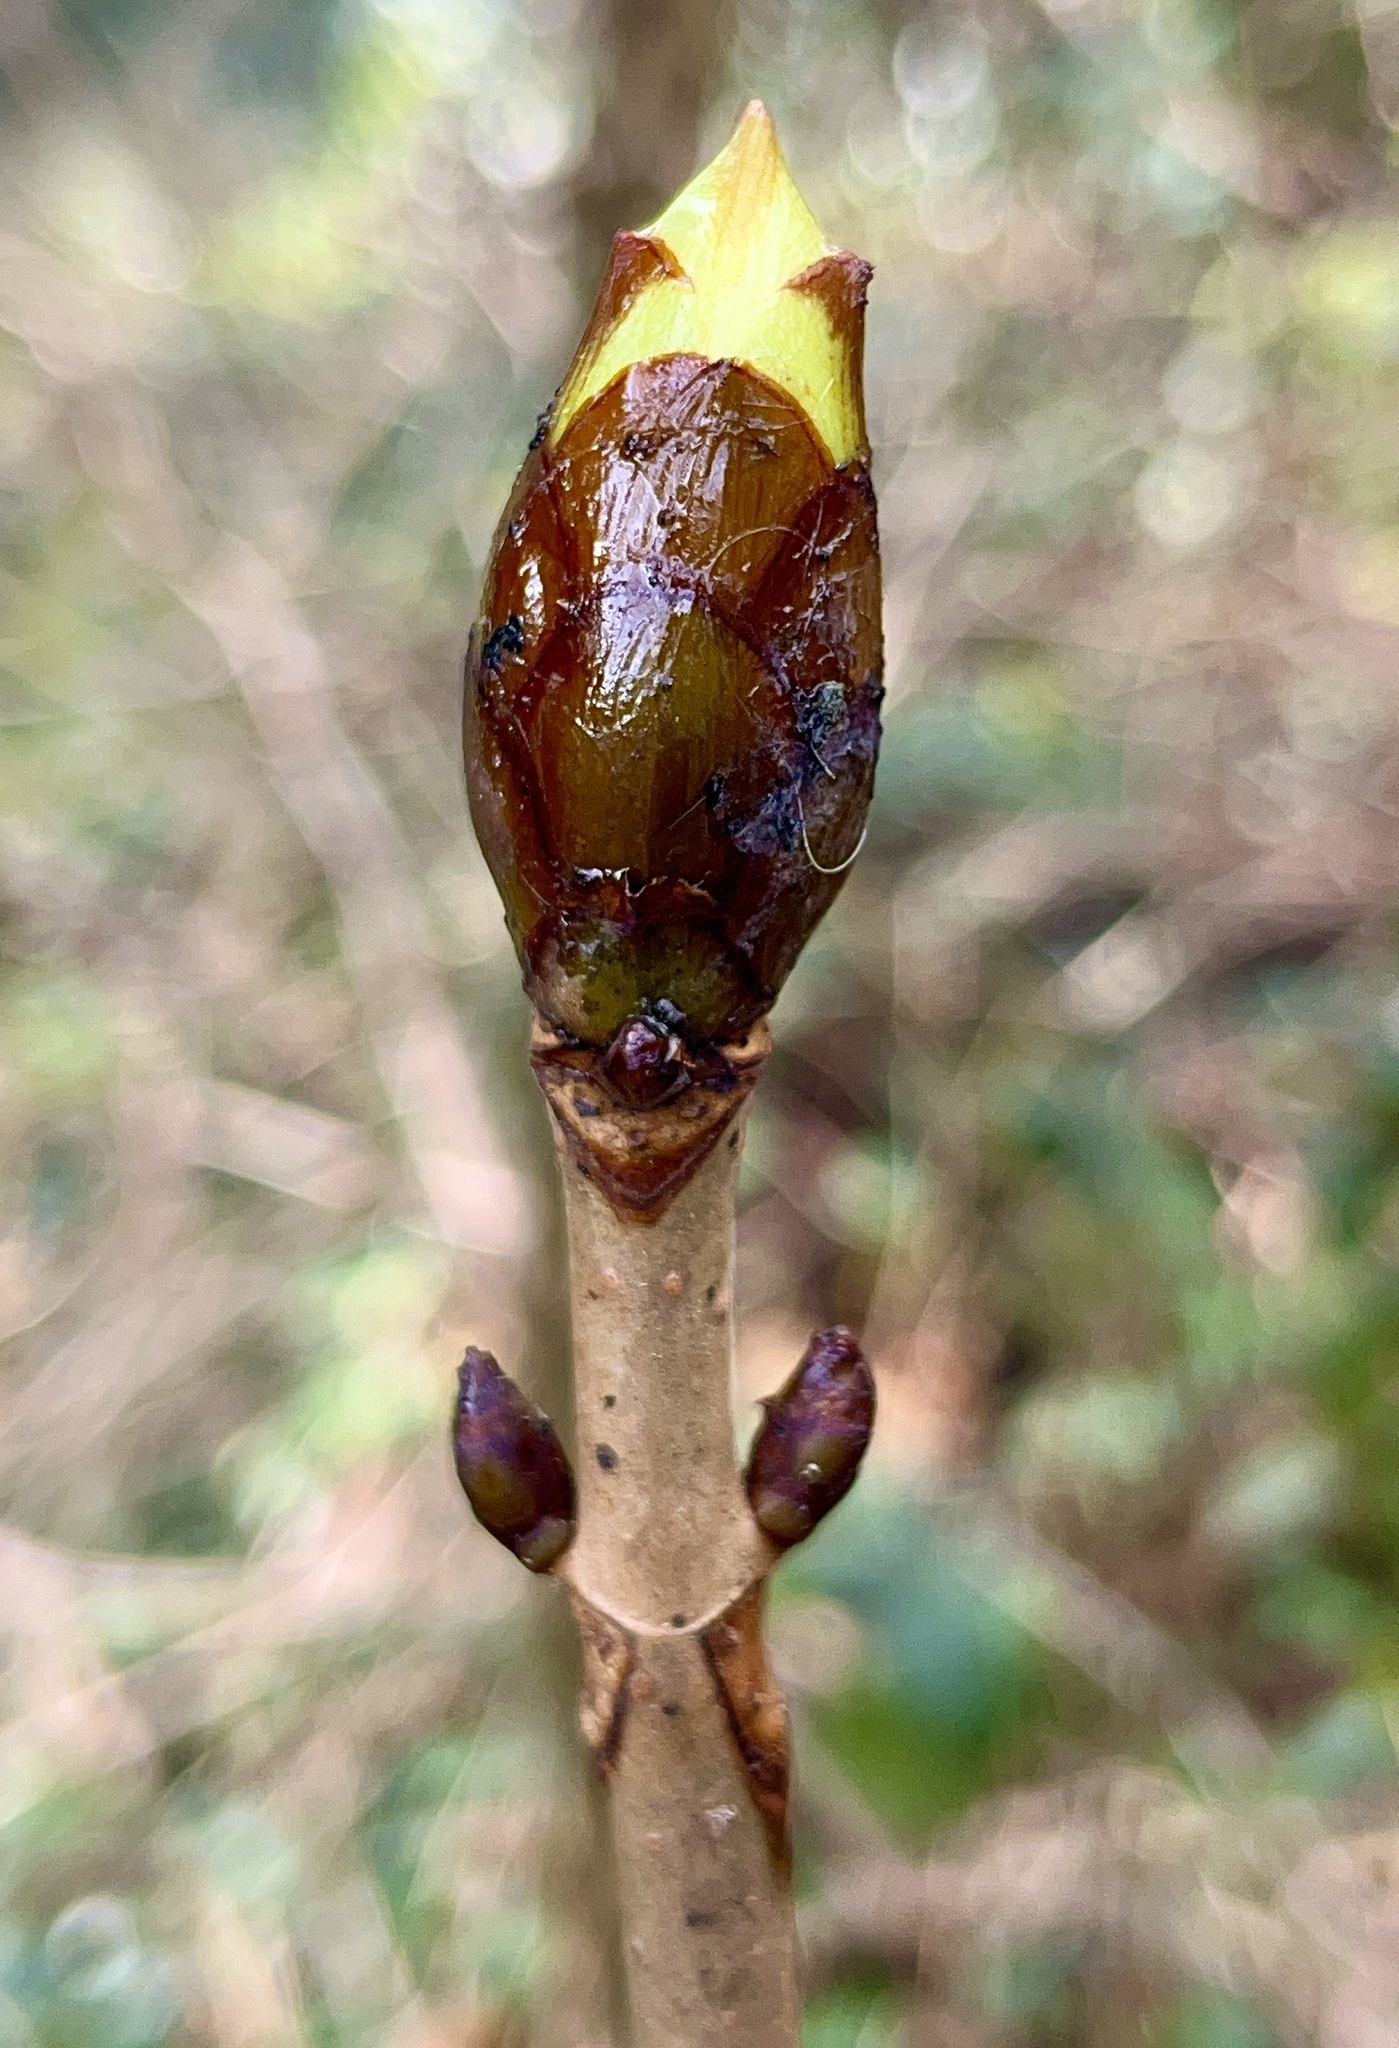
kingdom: Plantae
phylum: Tracheophyta
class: Magnoliopsida
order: Sapindales
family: Sapindaceae
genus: Aesculus
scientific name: Aesculus hippocastanum
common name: Horse-chestnut
